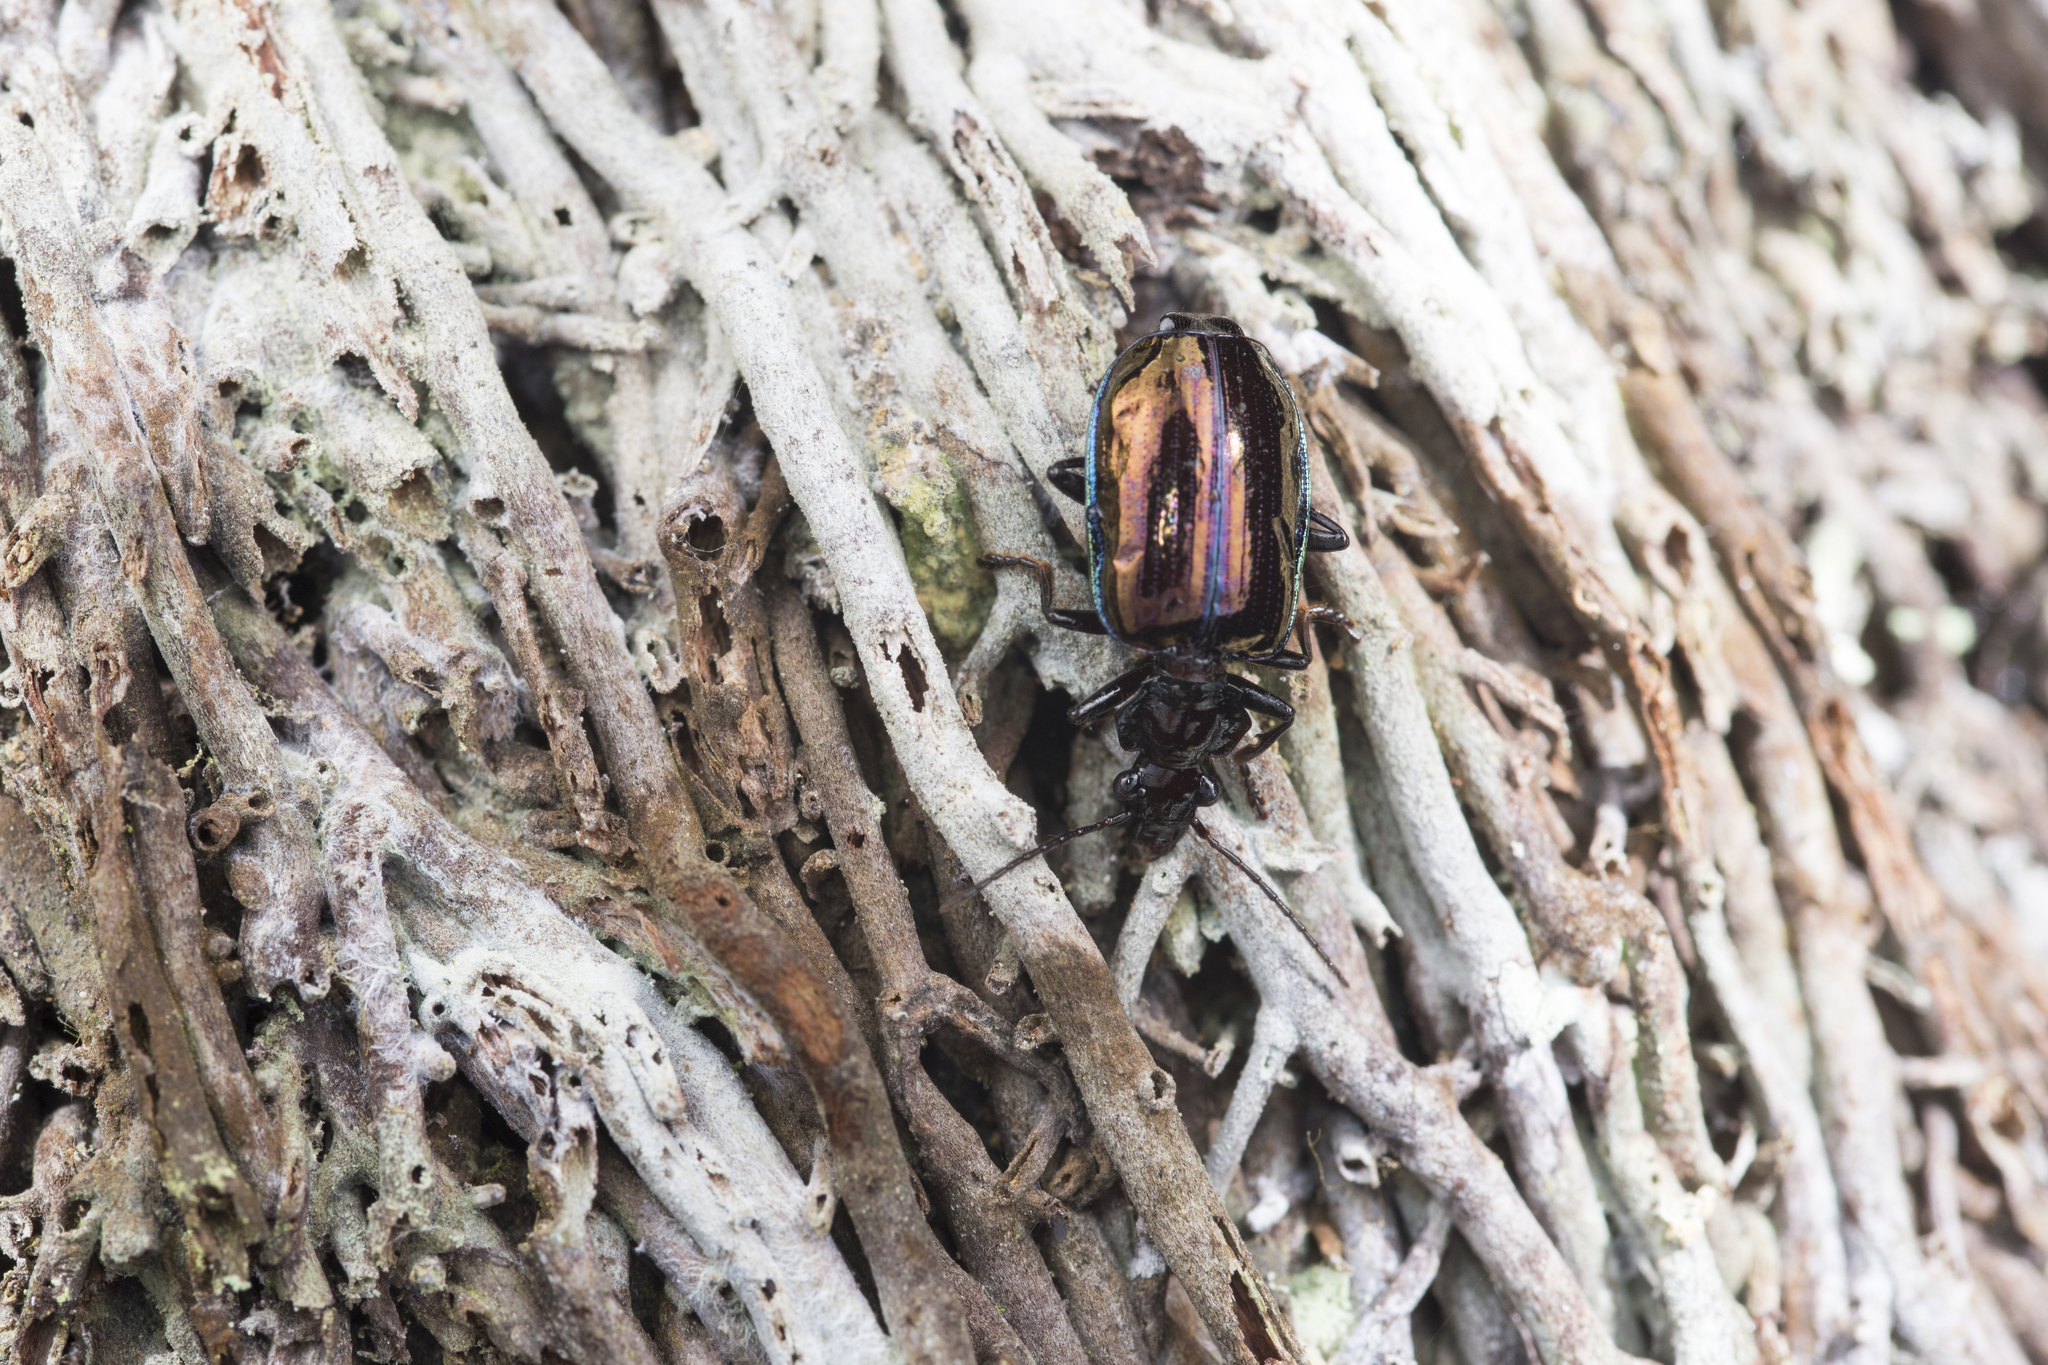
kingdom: Animalia
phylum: Arthropoda
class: Insecta
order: Coleoptera
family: Carabidae
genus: Physodera
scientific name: Physodera eschscholtzii
